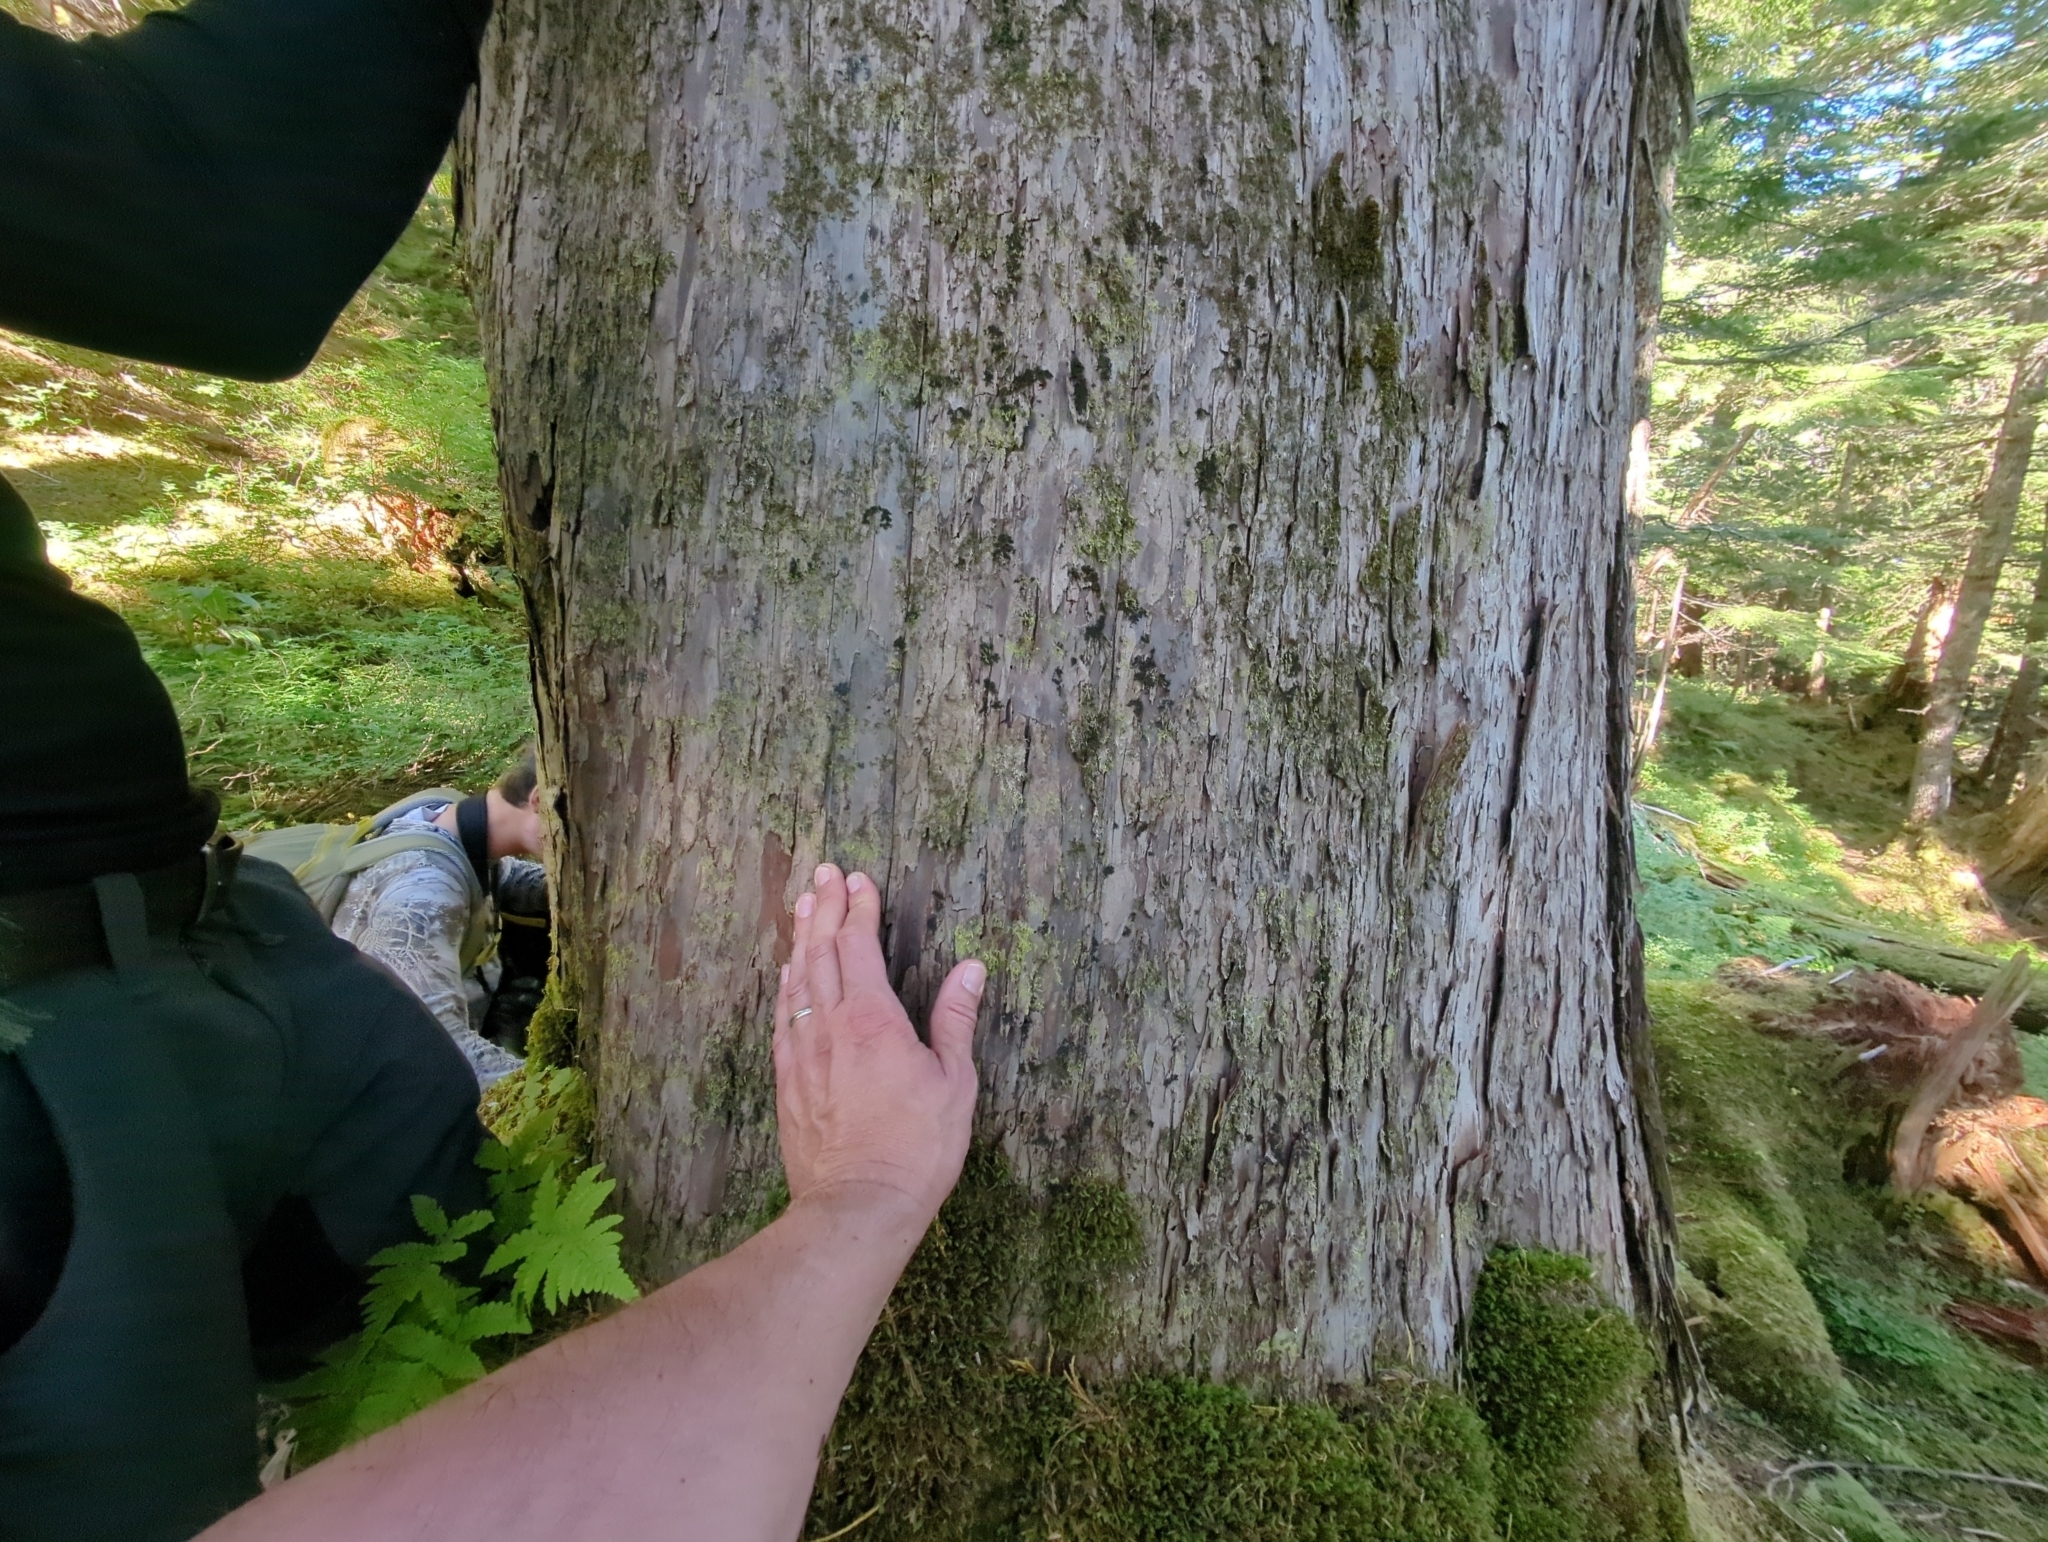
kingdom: Plantae
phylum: Marchantiophyta
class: Jungermanniopsida
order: Porellales
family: Radulaceae
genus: Radula
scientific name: Radula complanata
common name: Flat-leaved scalewort
